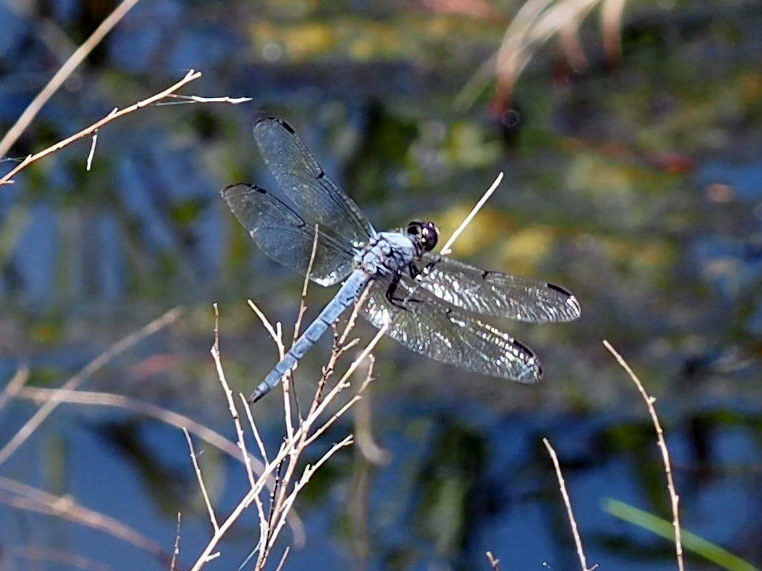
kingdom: Animalia
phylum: Arthropoda
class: Insecta
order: Odonata
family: Libellulidae
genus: Libellula
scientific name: Libellula vibrans
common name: Great blue skimmer
